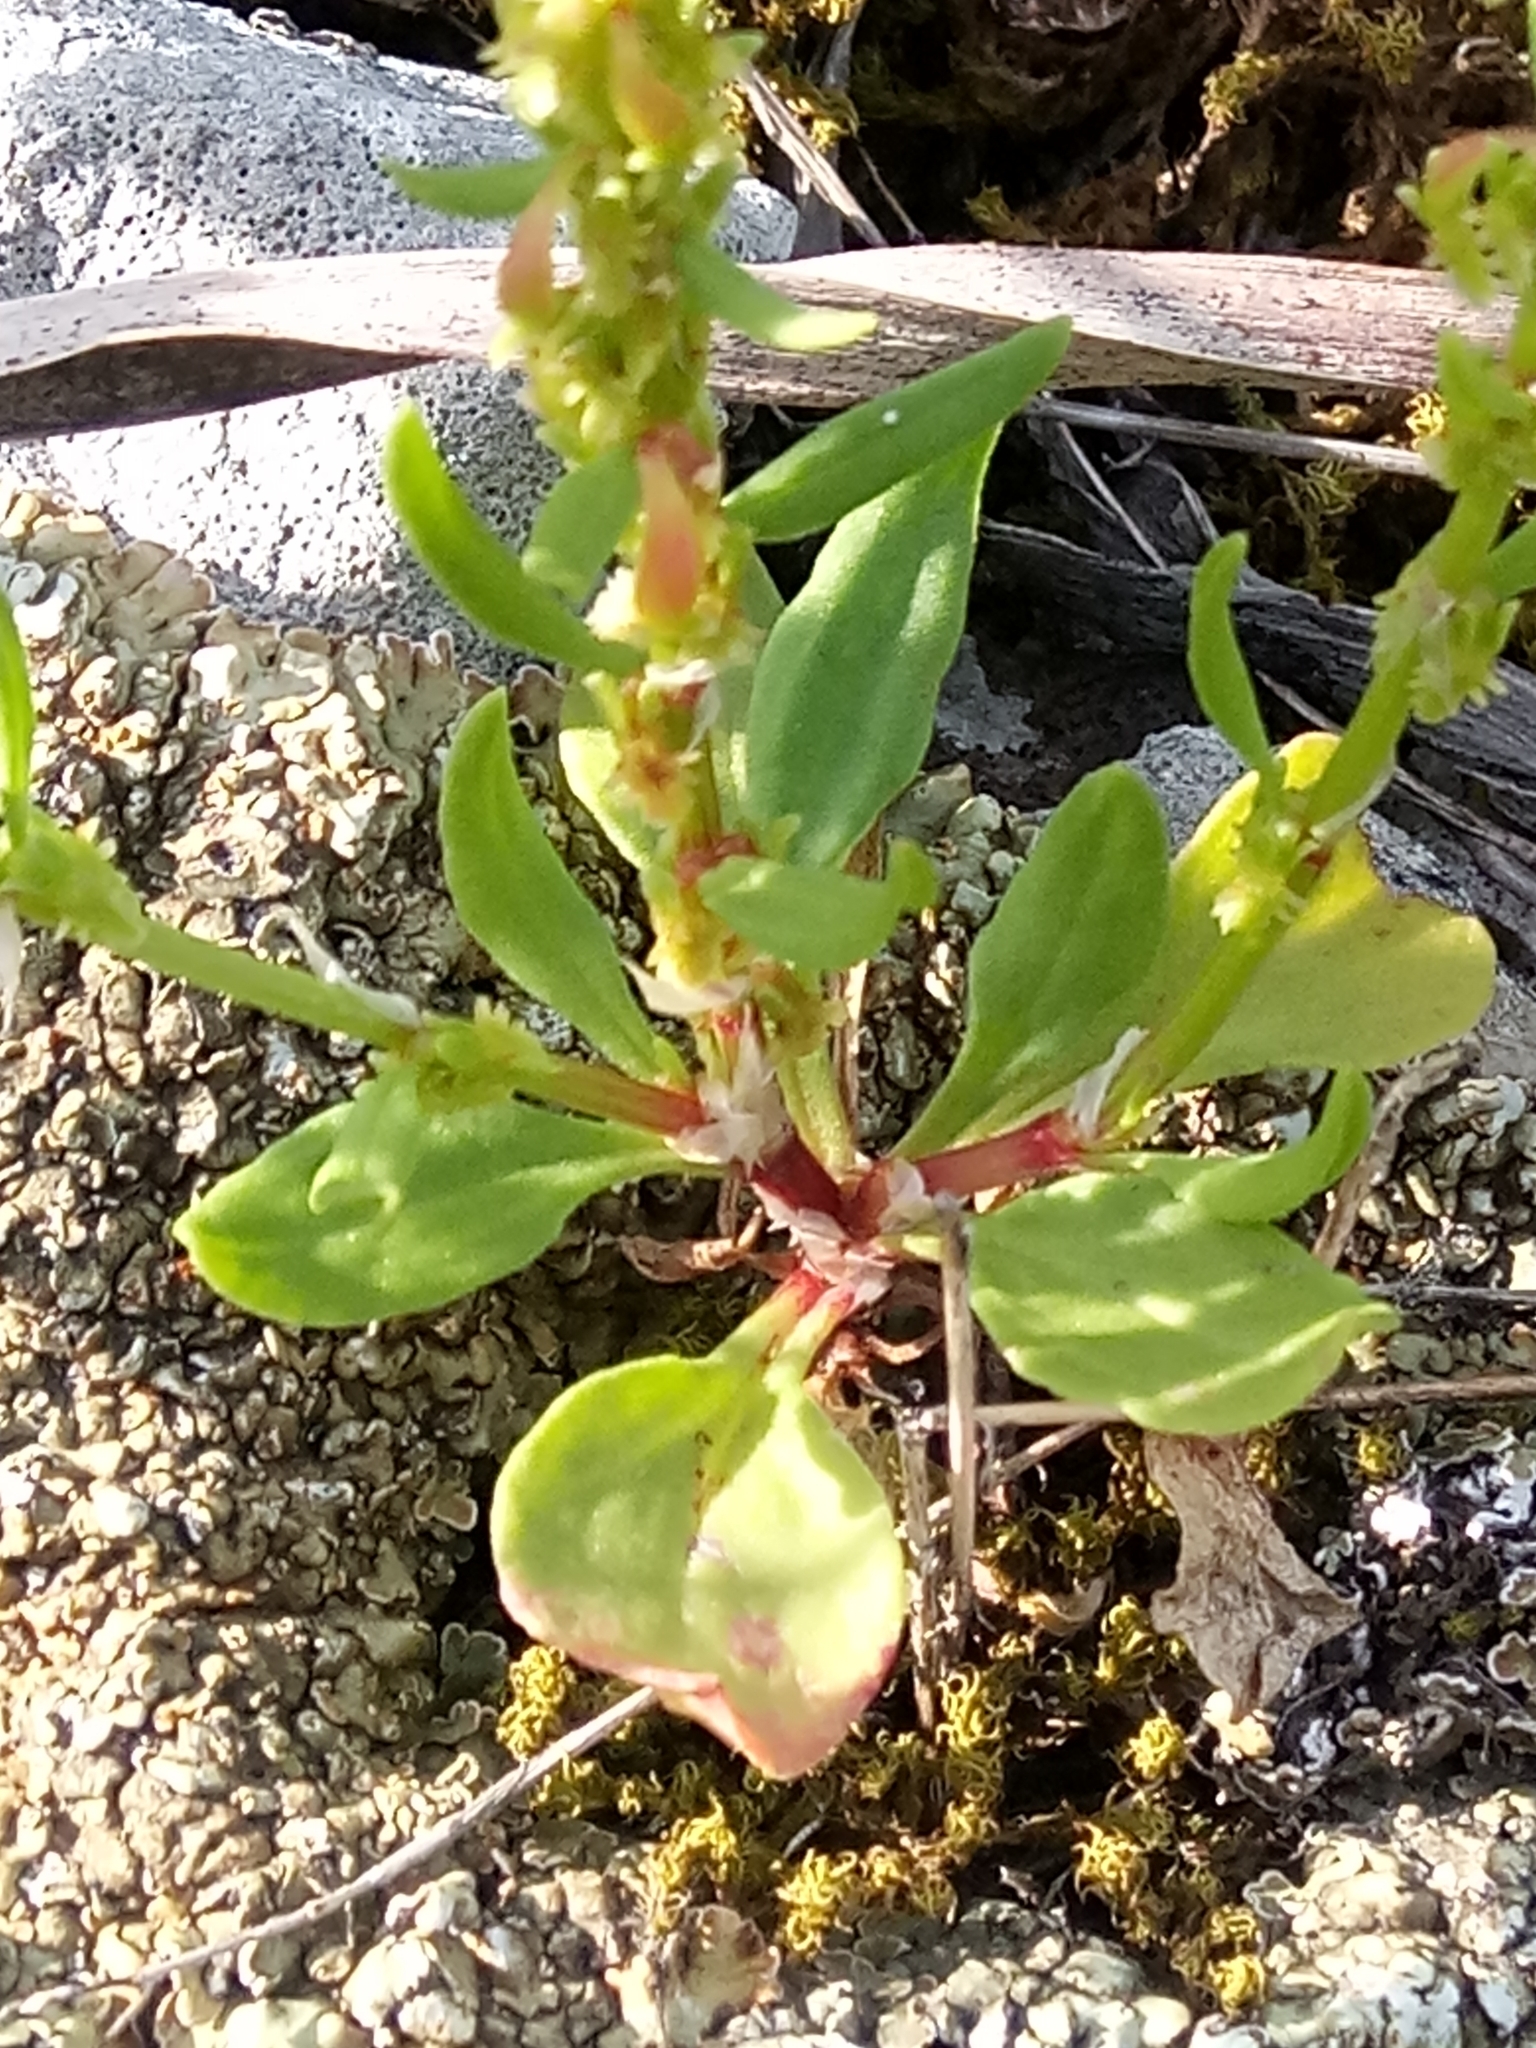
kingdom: Plantae
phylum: Tracheophyta
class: Magnoliopsida
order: Caryophyllales
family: Polygonaceae
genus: Rumex
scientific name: Rumex bucephalophorus
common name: Red dock
